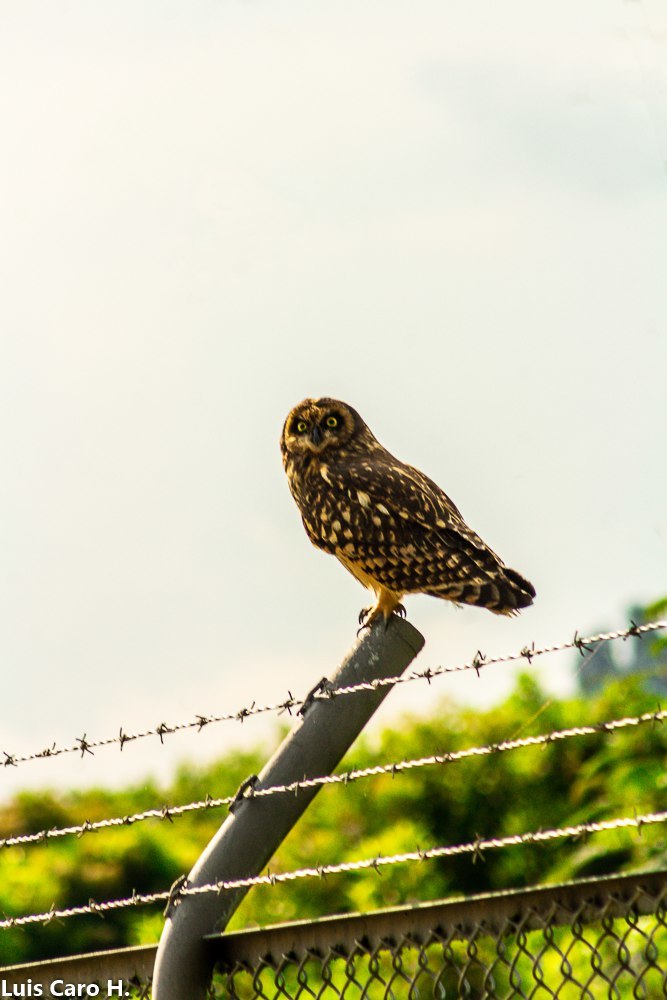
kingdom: Animalia
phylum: Chordata
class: Aves
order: Strigiformes
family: Strigidae
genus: Asio
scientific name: Asio flammeus
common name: Short-eared owl
